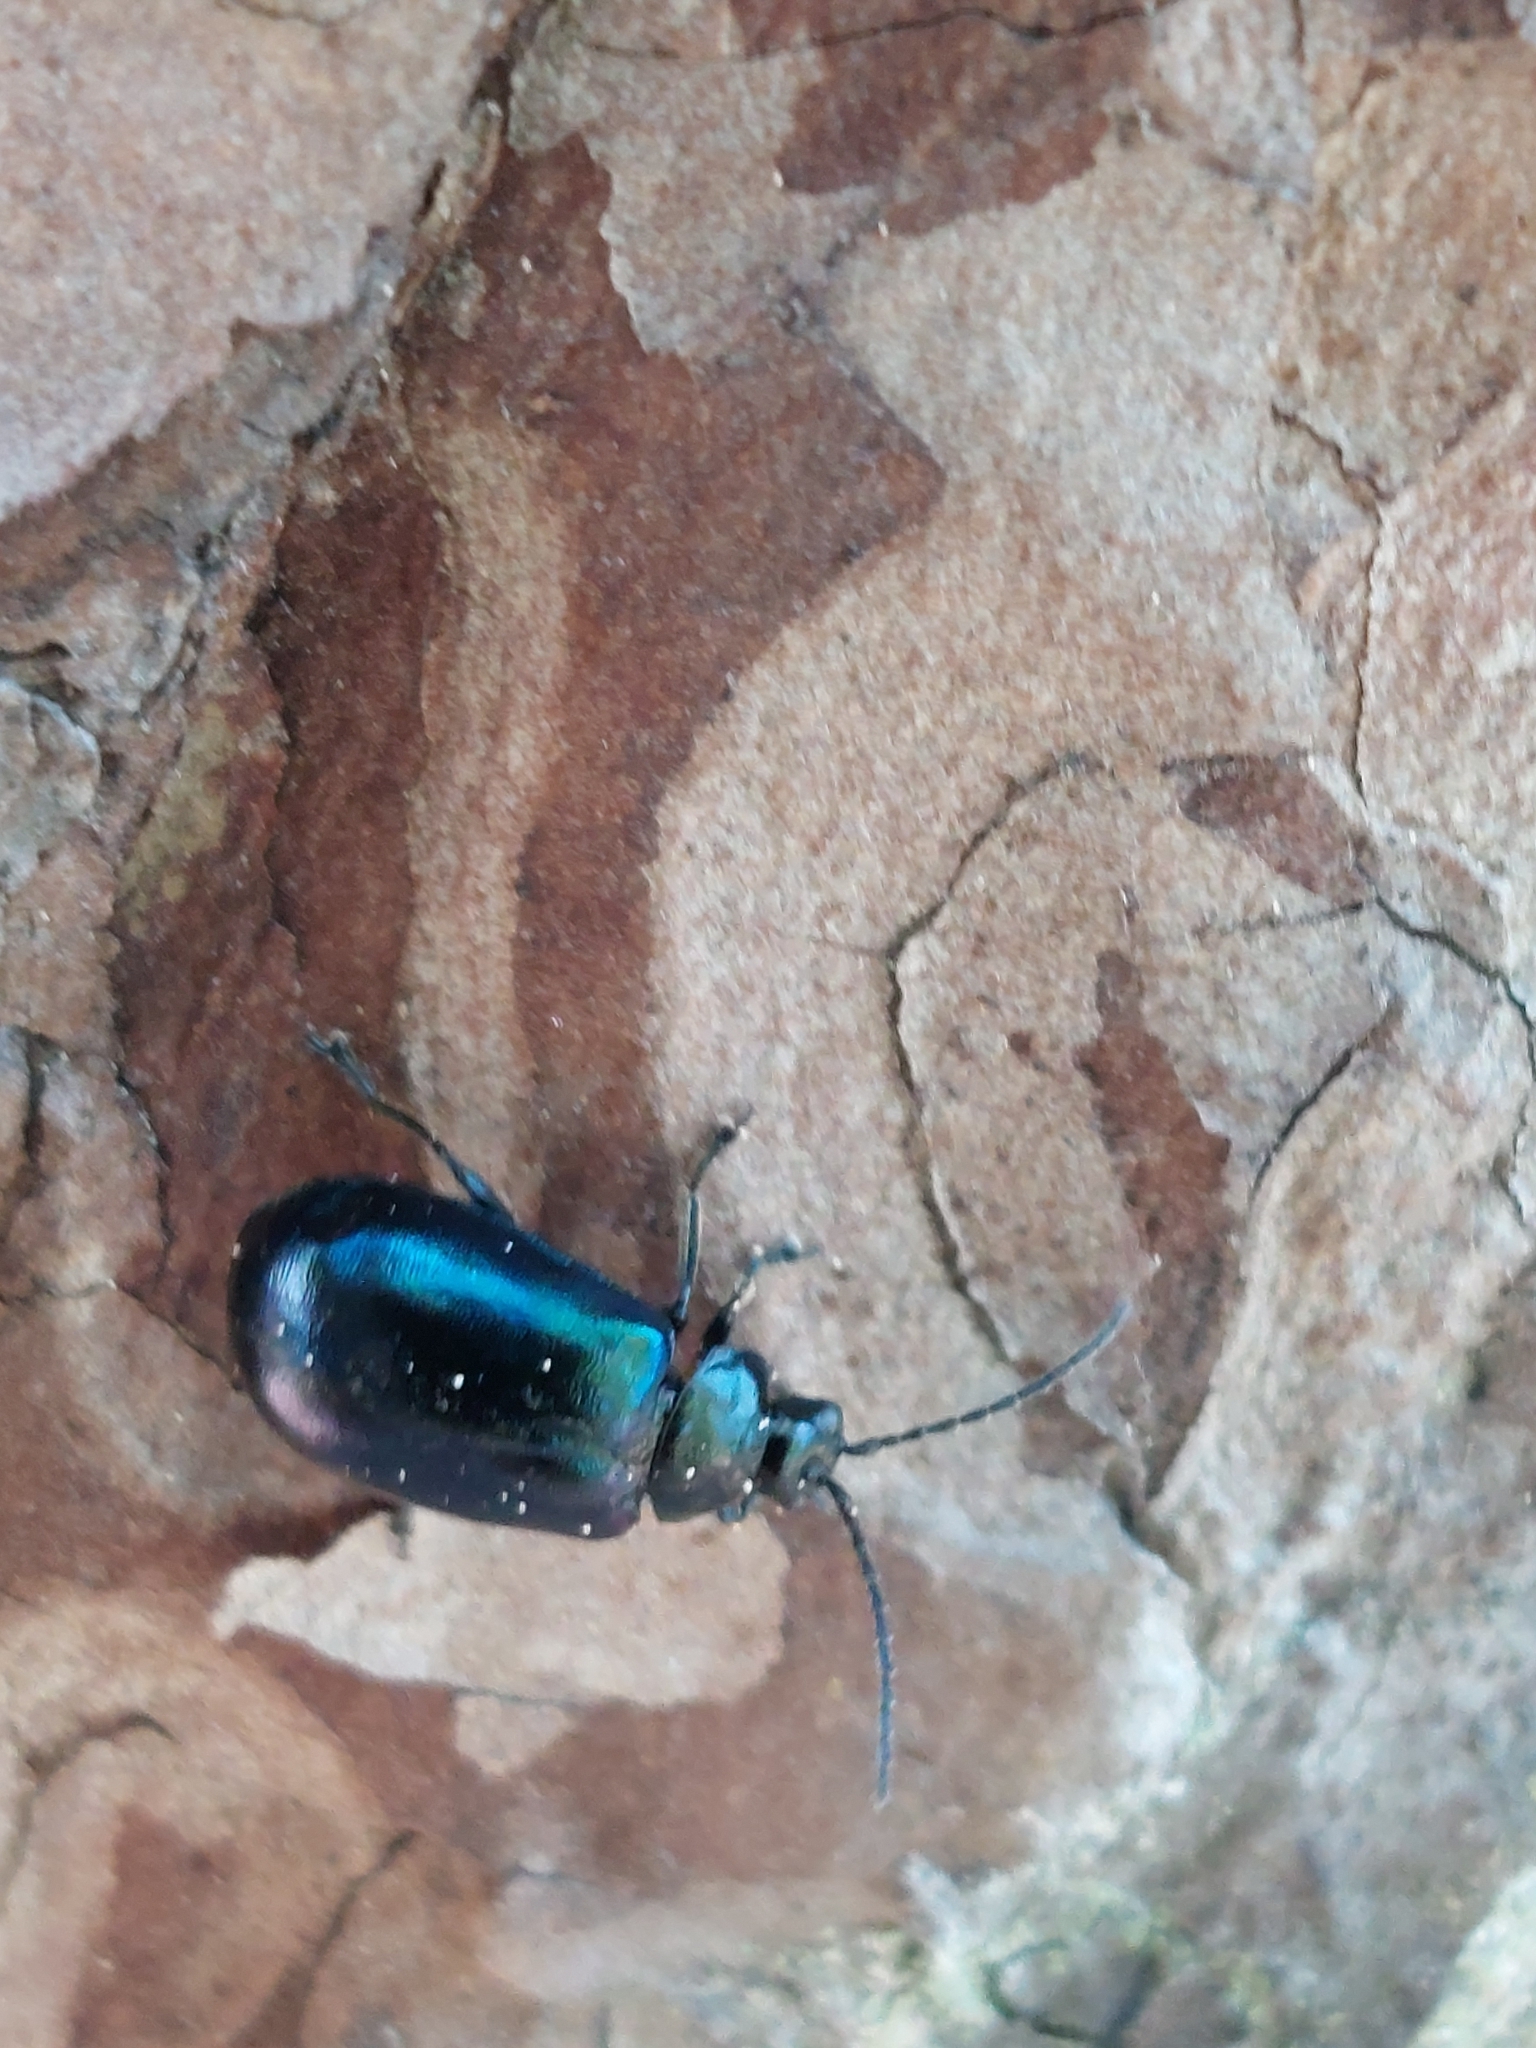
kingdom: Animalia
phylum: Arthropoda
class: Insecta
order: Coleoptera
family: Chrysomelidae
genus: Agelastica
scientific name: Agelastica alni
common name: Alder leaf beetle
